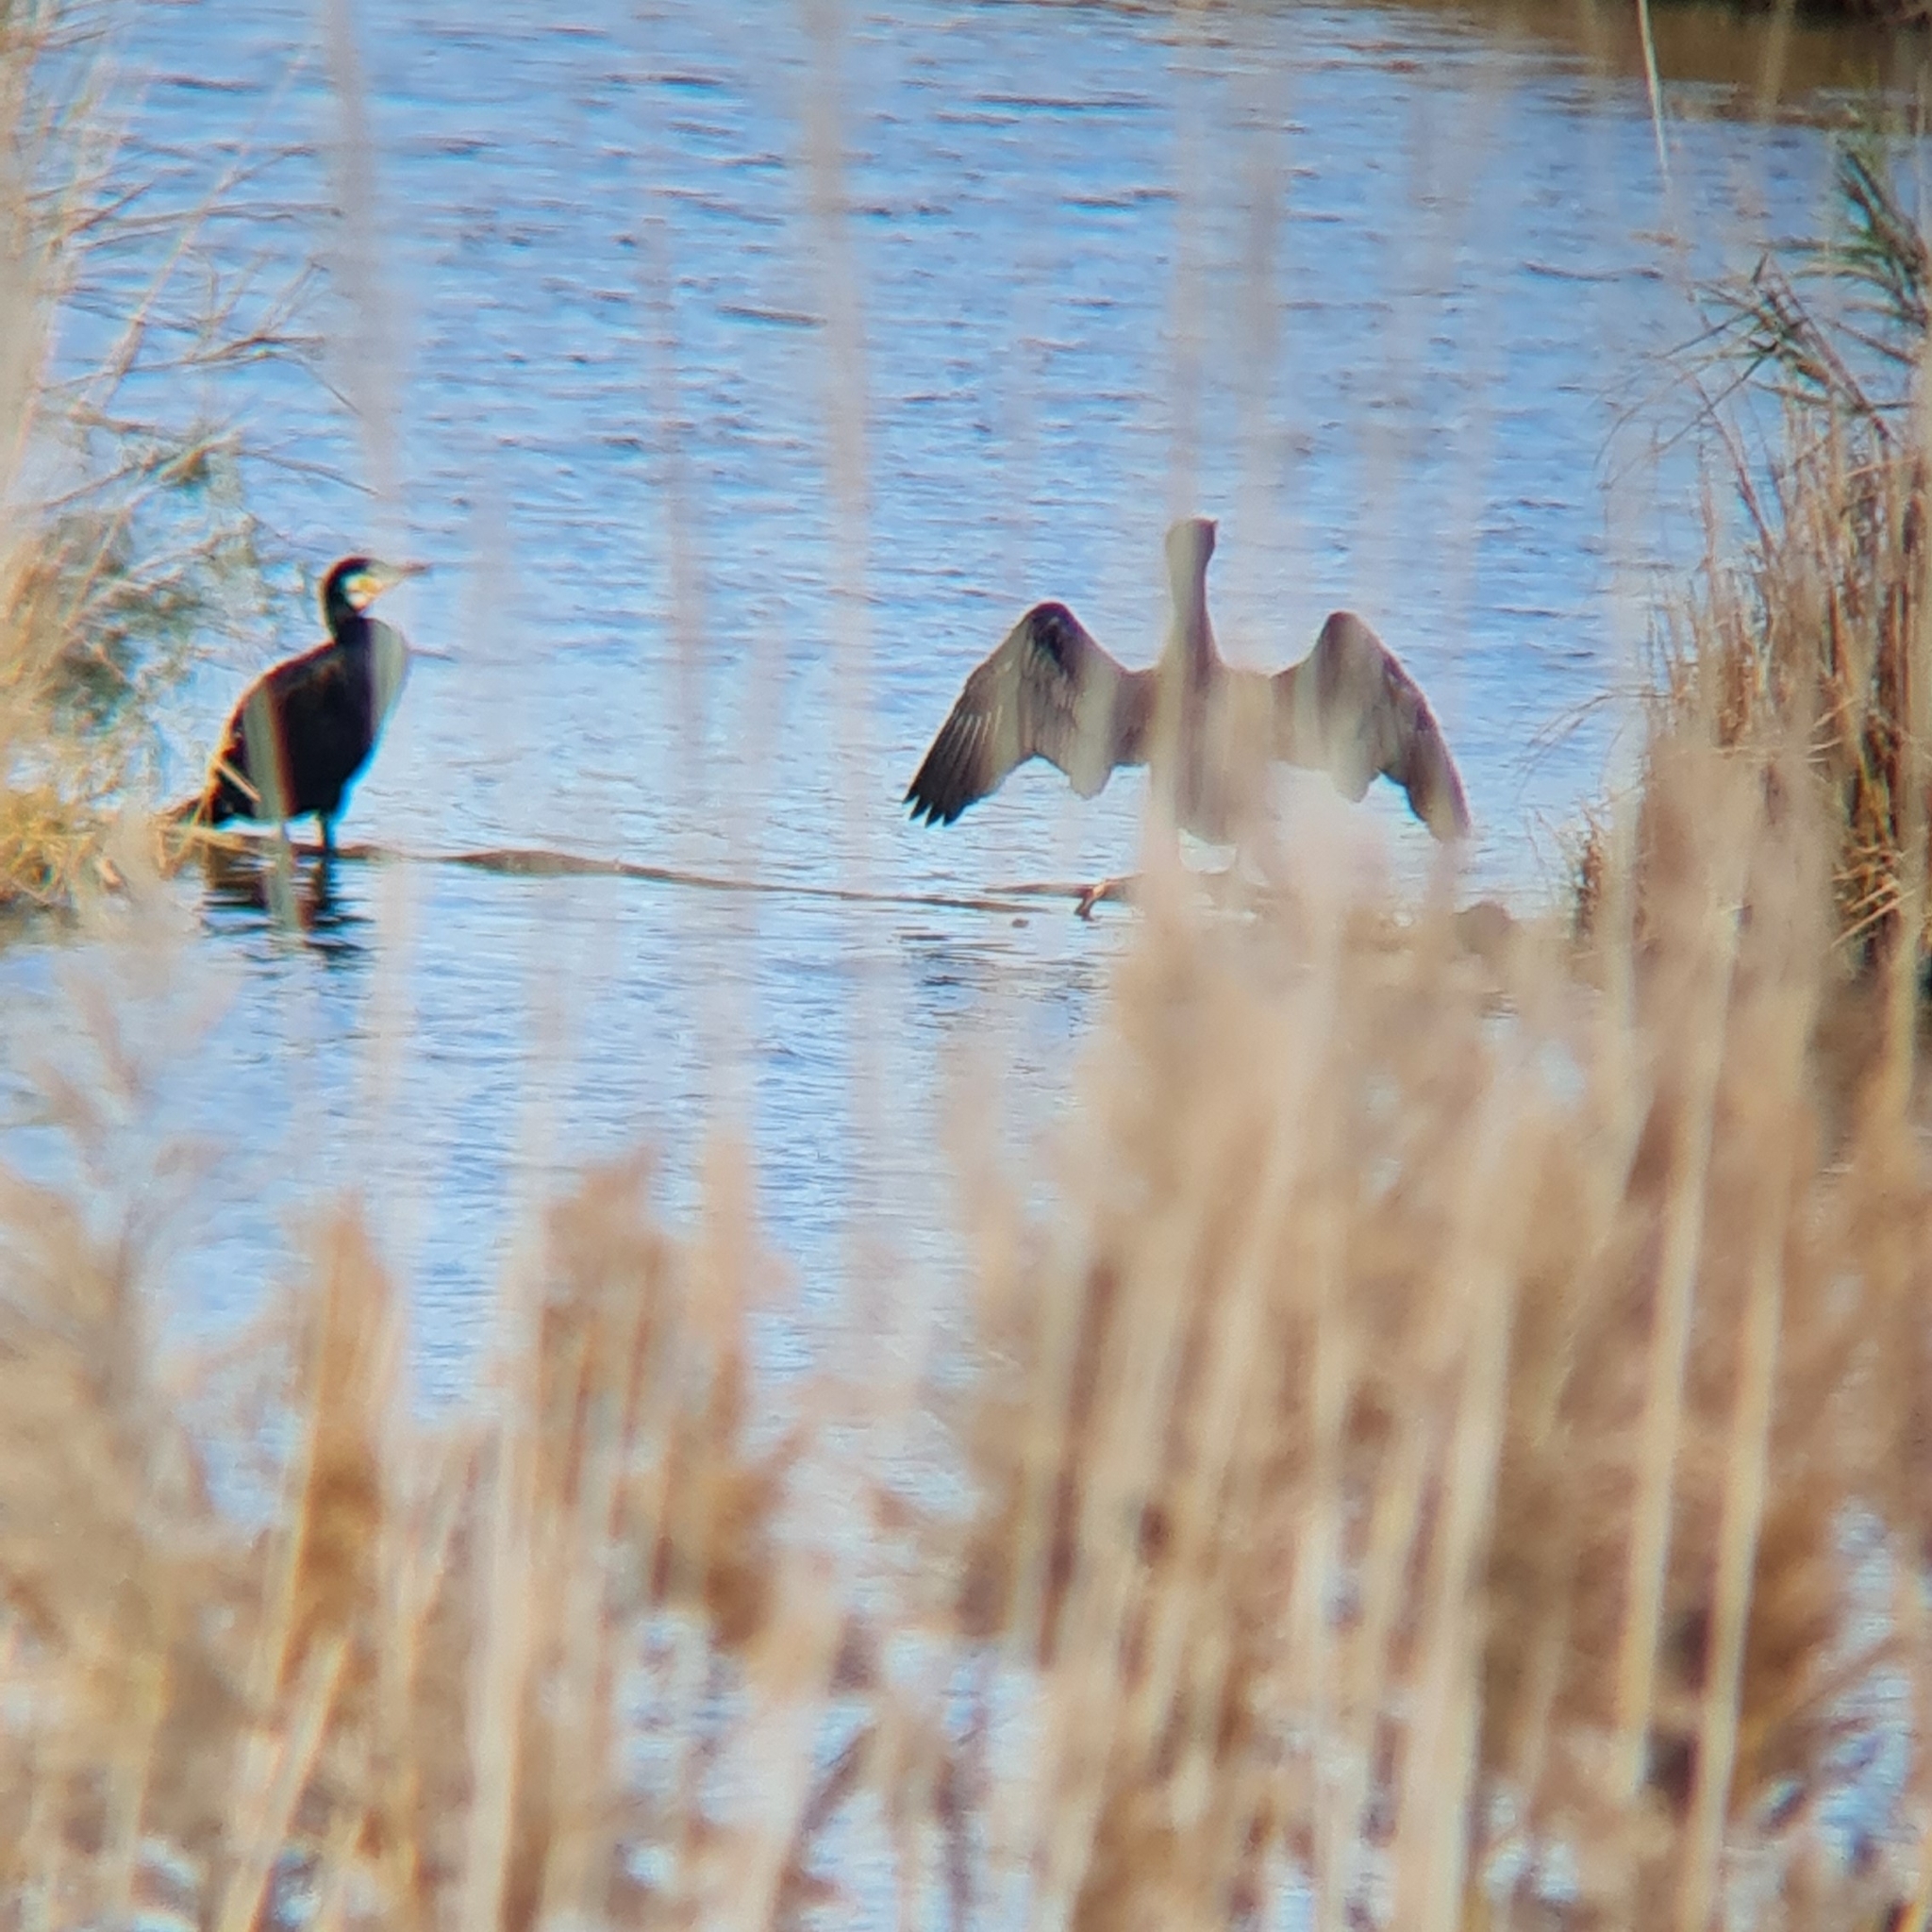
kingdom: Animalia
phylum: Chordata
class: Aves
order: Suliformes
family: Phalacrocoracidae
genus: Phalacrocorax
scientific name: Phalacrocorax carbo
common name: Great cormorant
